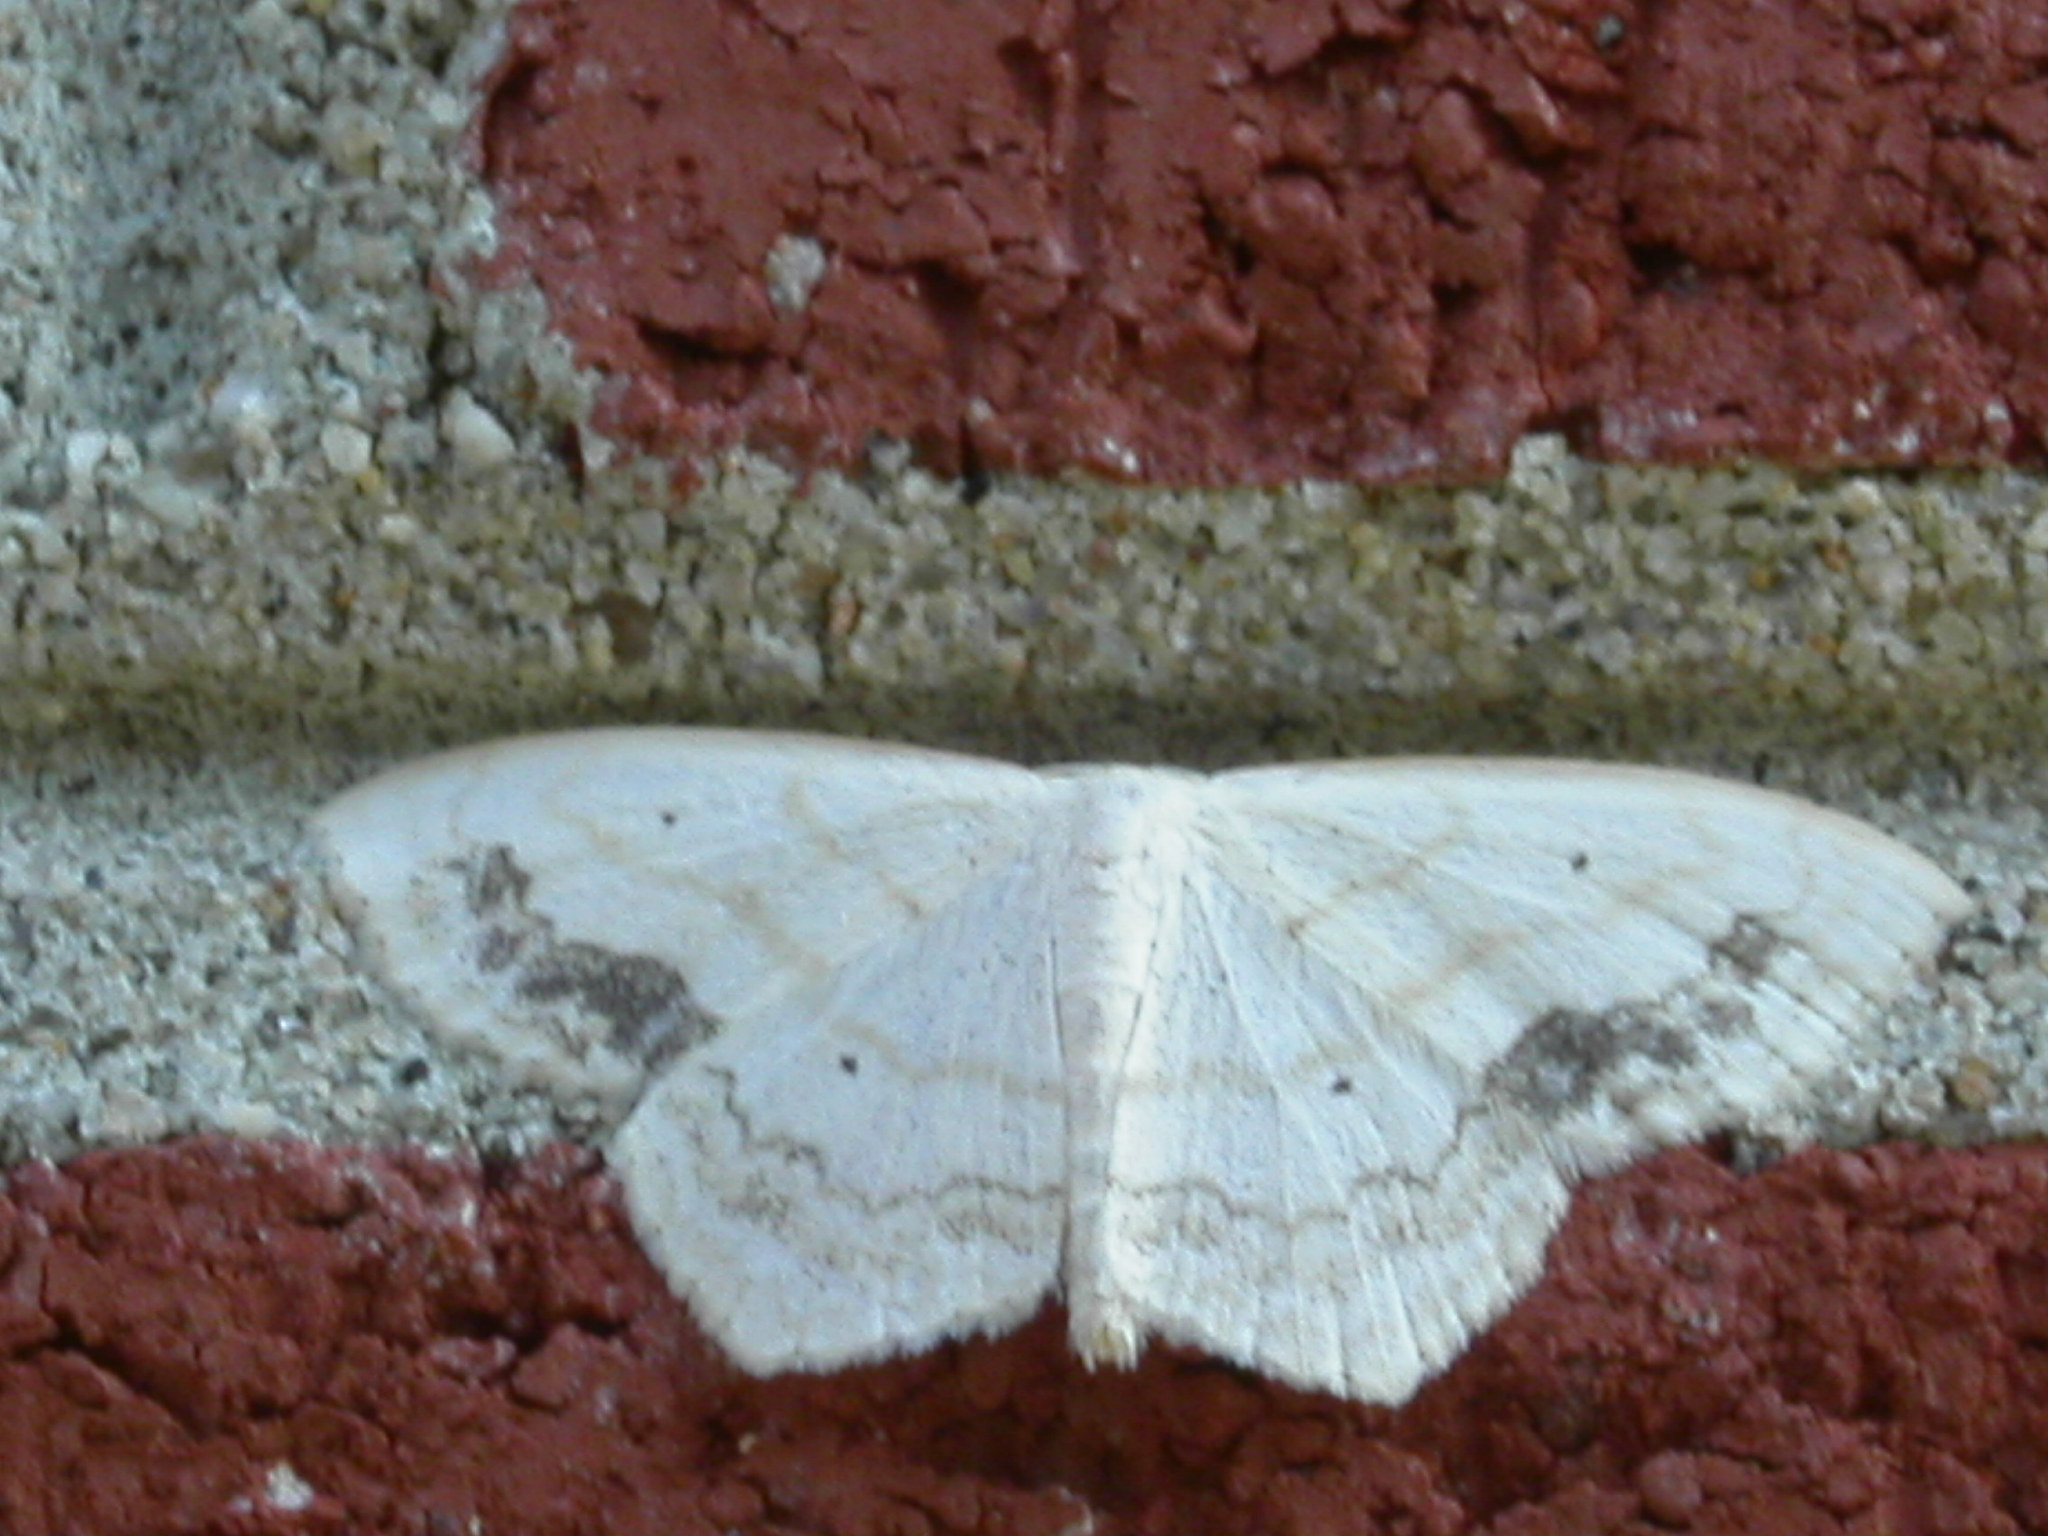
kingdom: Animalia
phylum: Arthropoda
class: Insecta
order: Lepidoptera
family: Geometridae
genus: Scopula
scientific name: Scopula limboundata
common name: Large lace border
